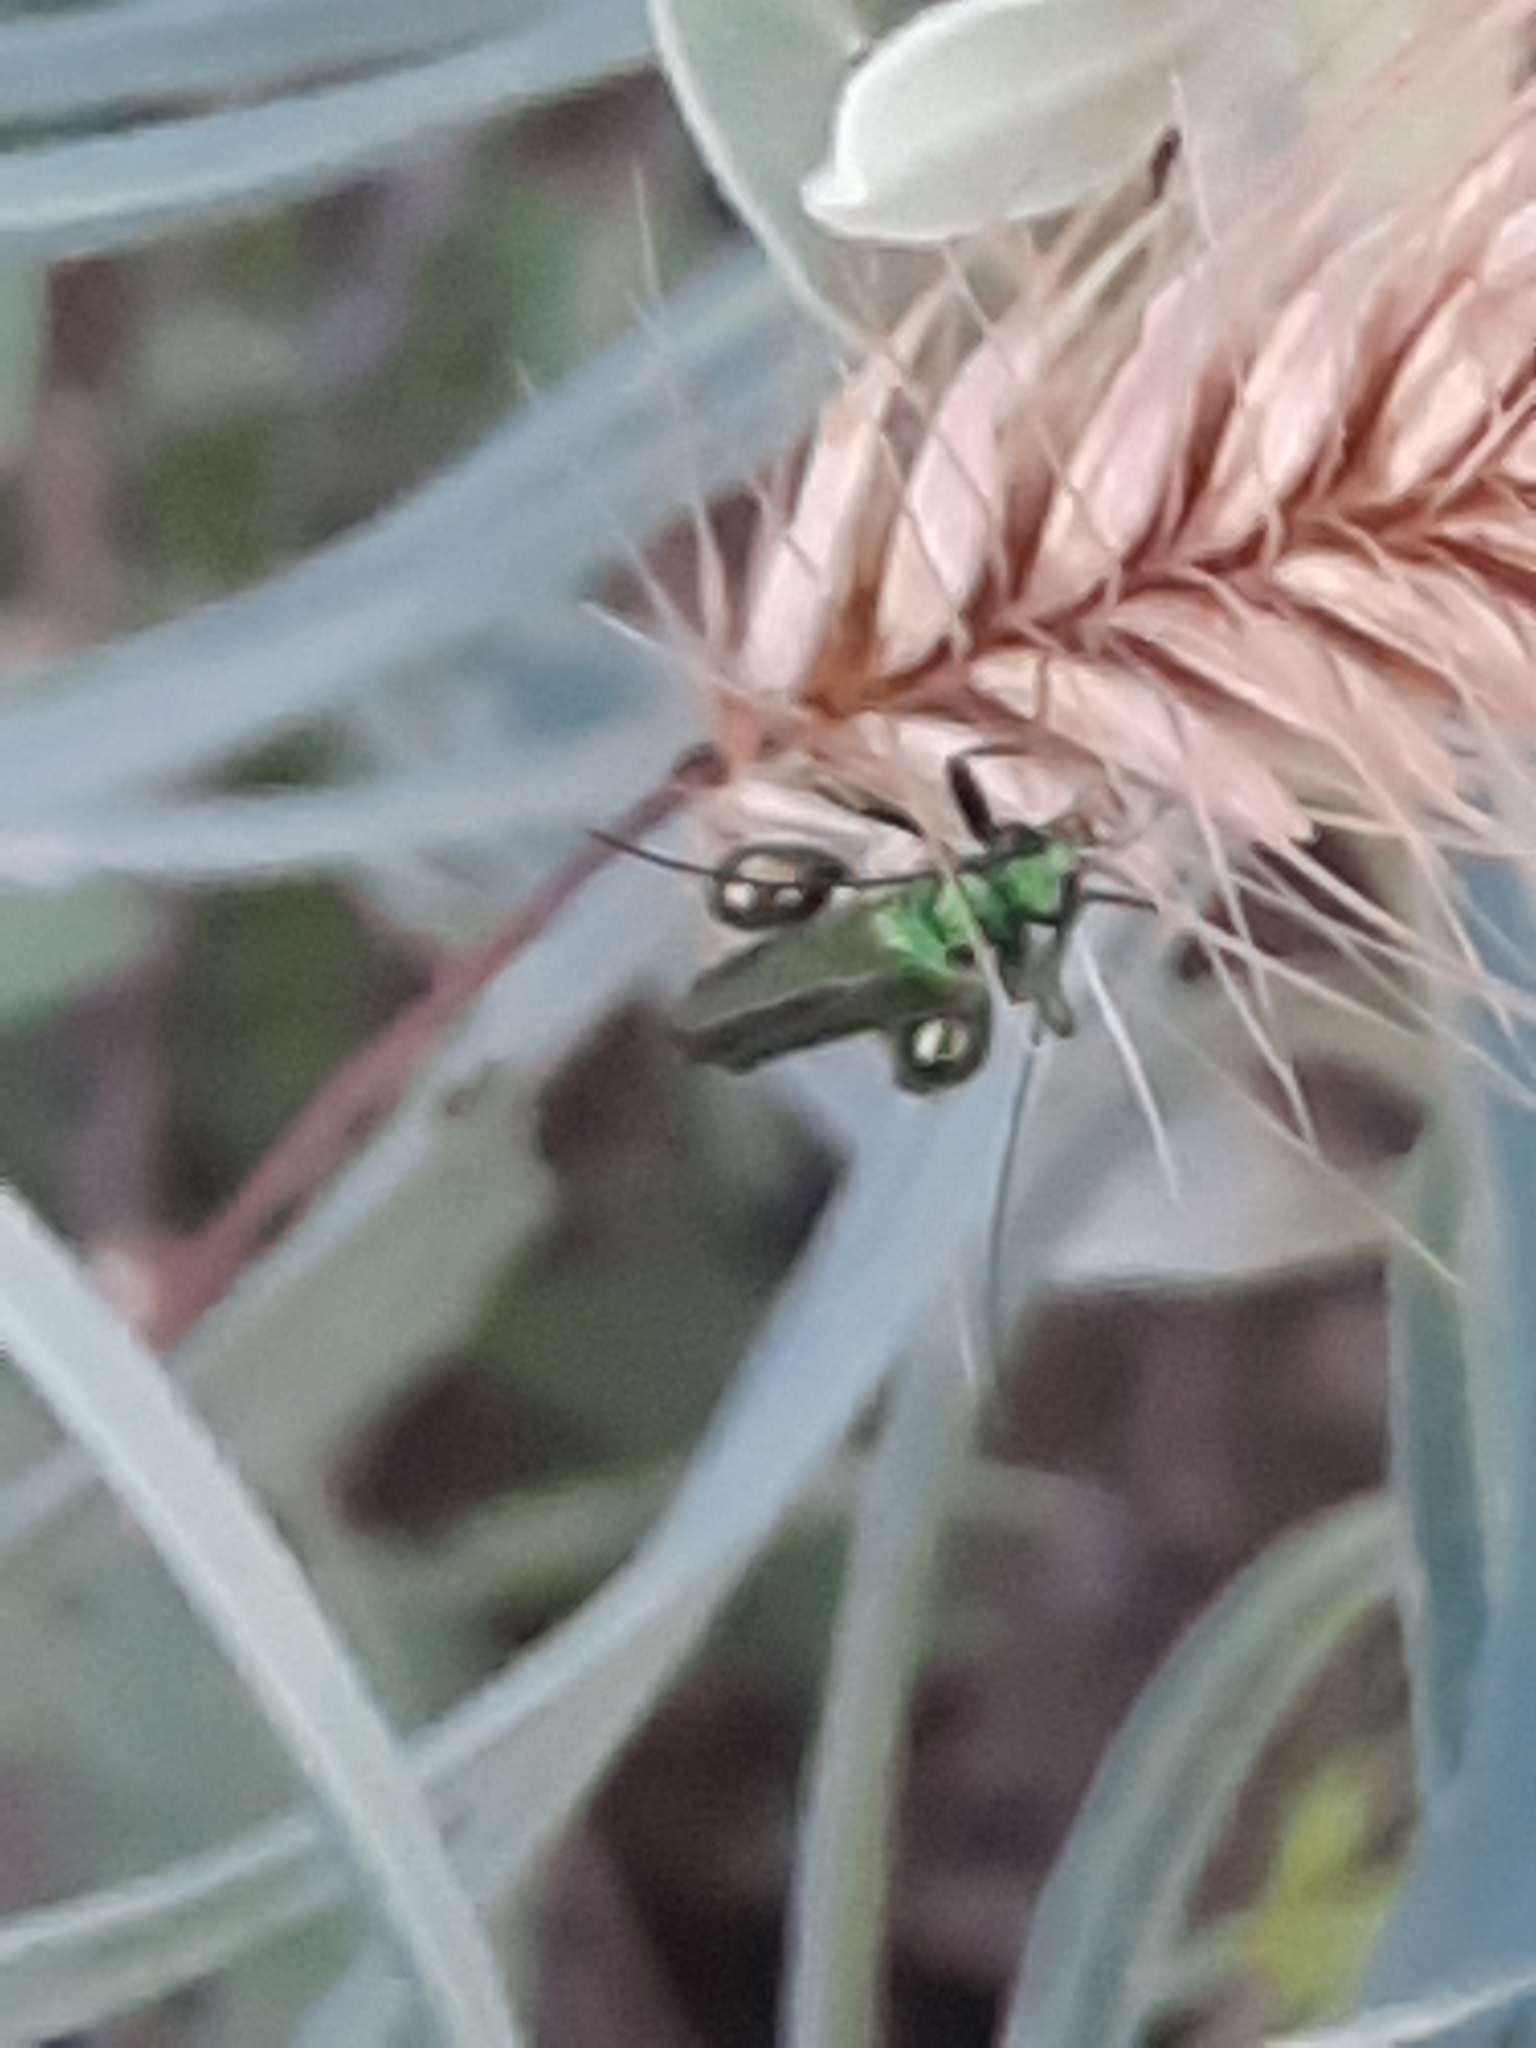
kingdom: Animalia
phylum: Arthropoda
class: Insecta
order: Coleoptera
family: Oedemeridae
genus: Oedemera
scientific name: Oedemera nobilis
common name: Swollen-thighed beetle
